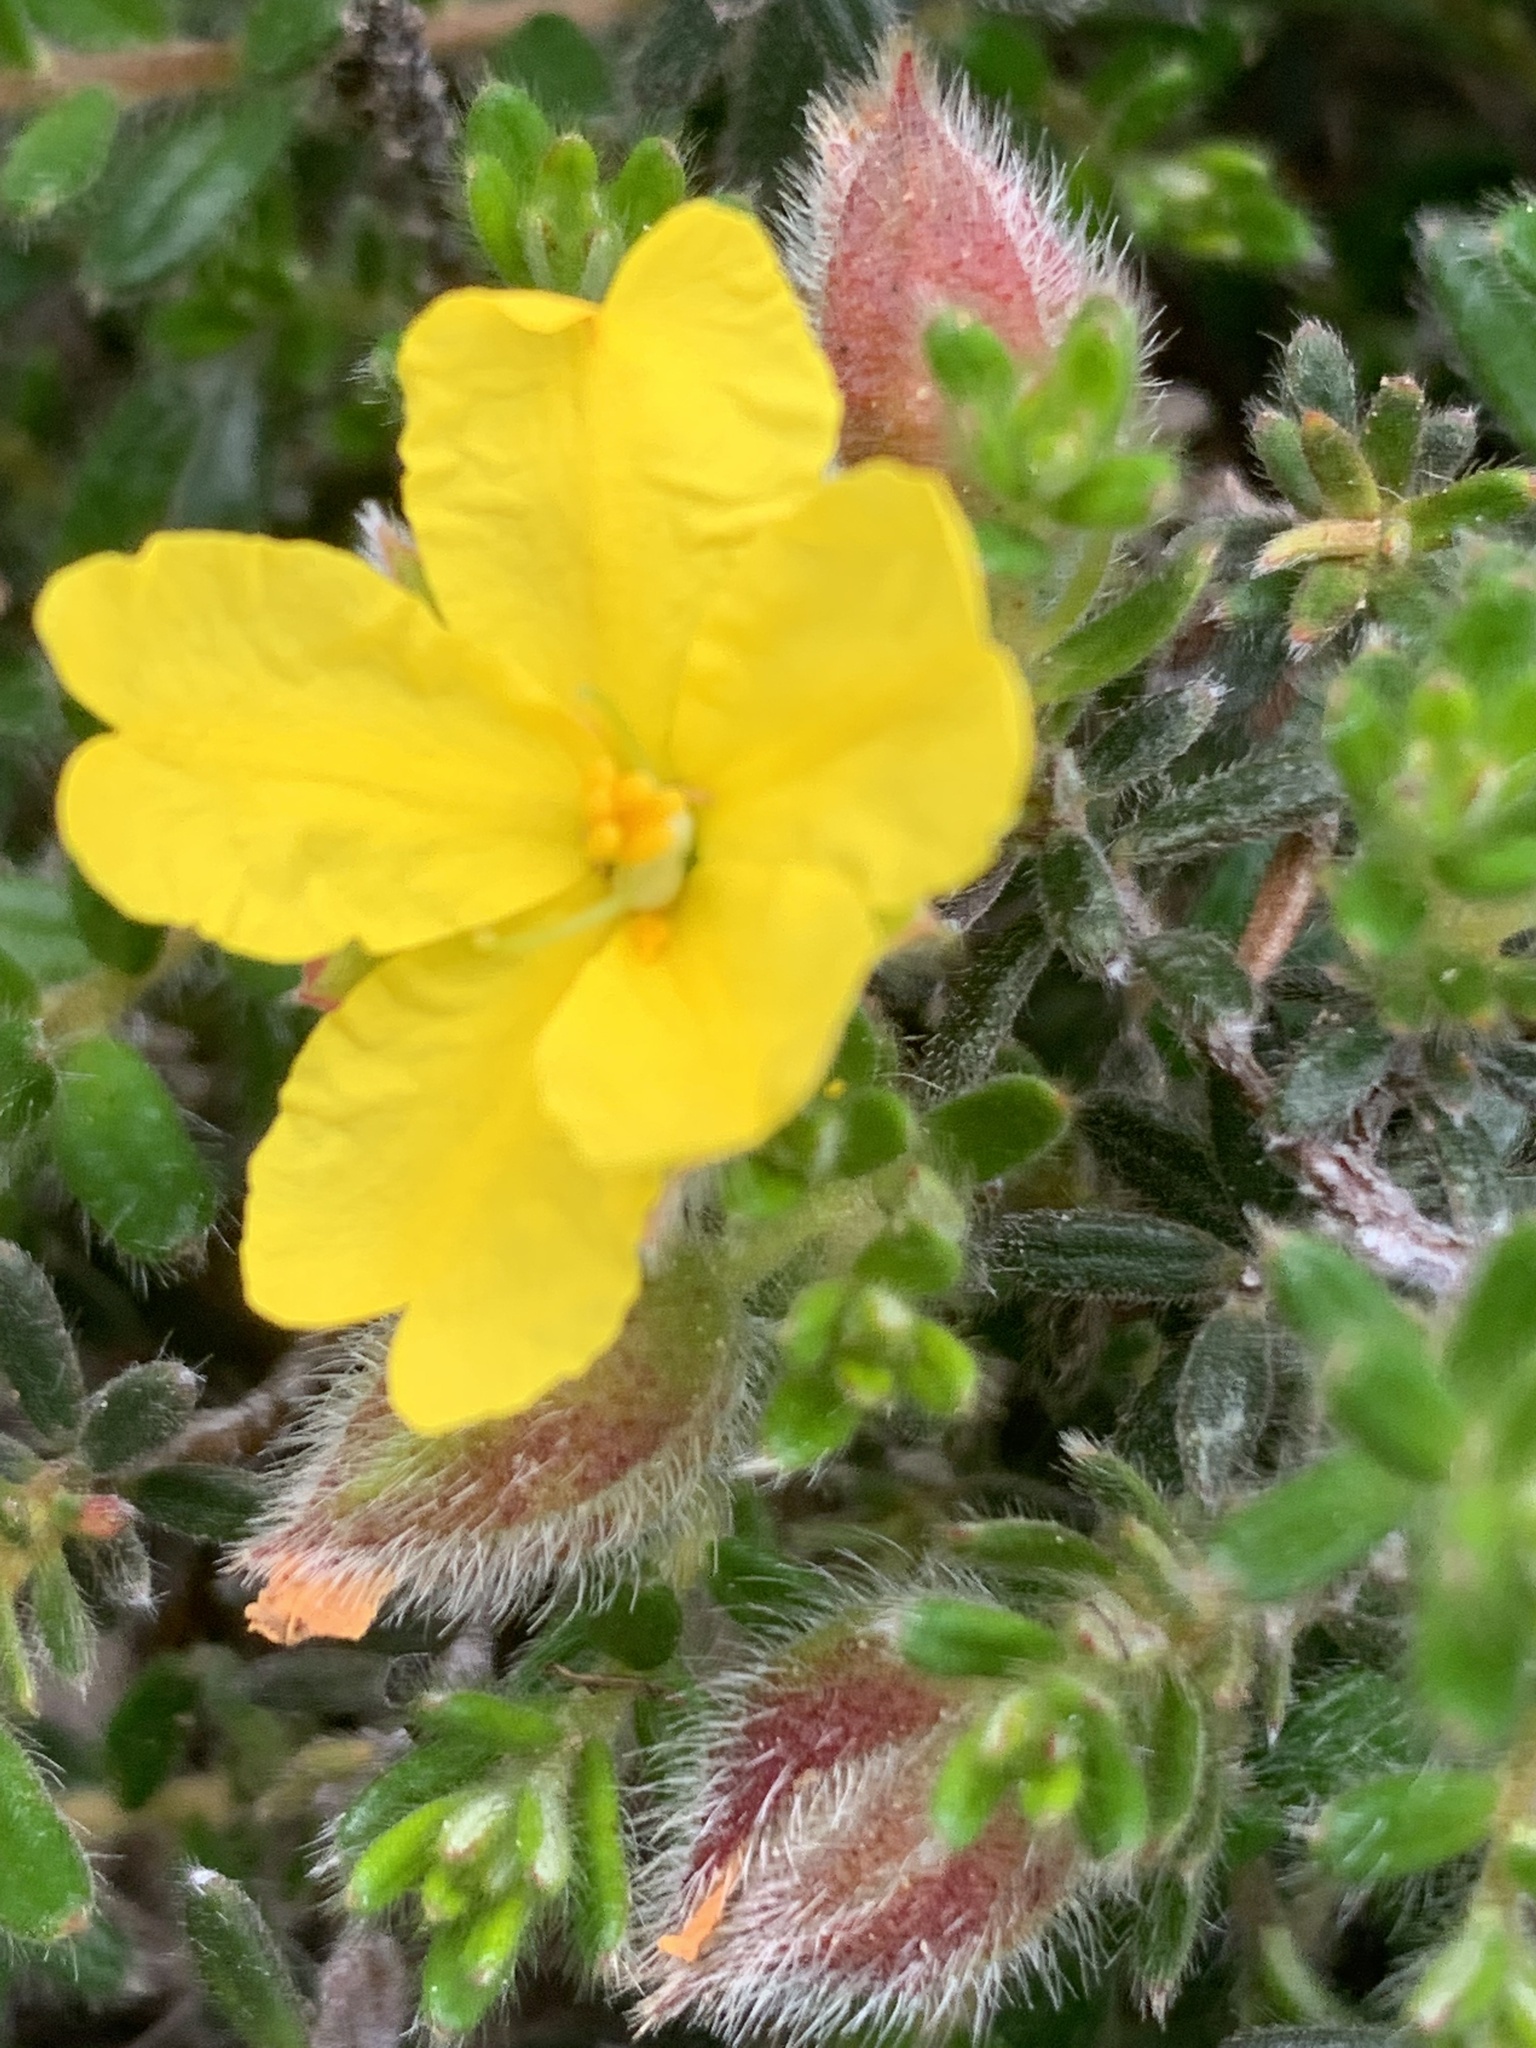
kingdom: Plantae
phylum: Tracheophyta
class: Magnoliopsida
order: Dilleniales
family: Dilleniaceae
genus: Hibbertia
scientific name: Hibbertia humifusa
